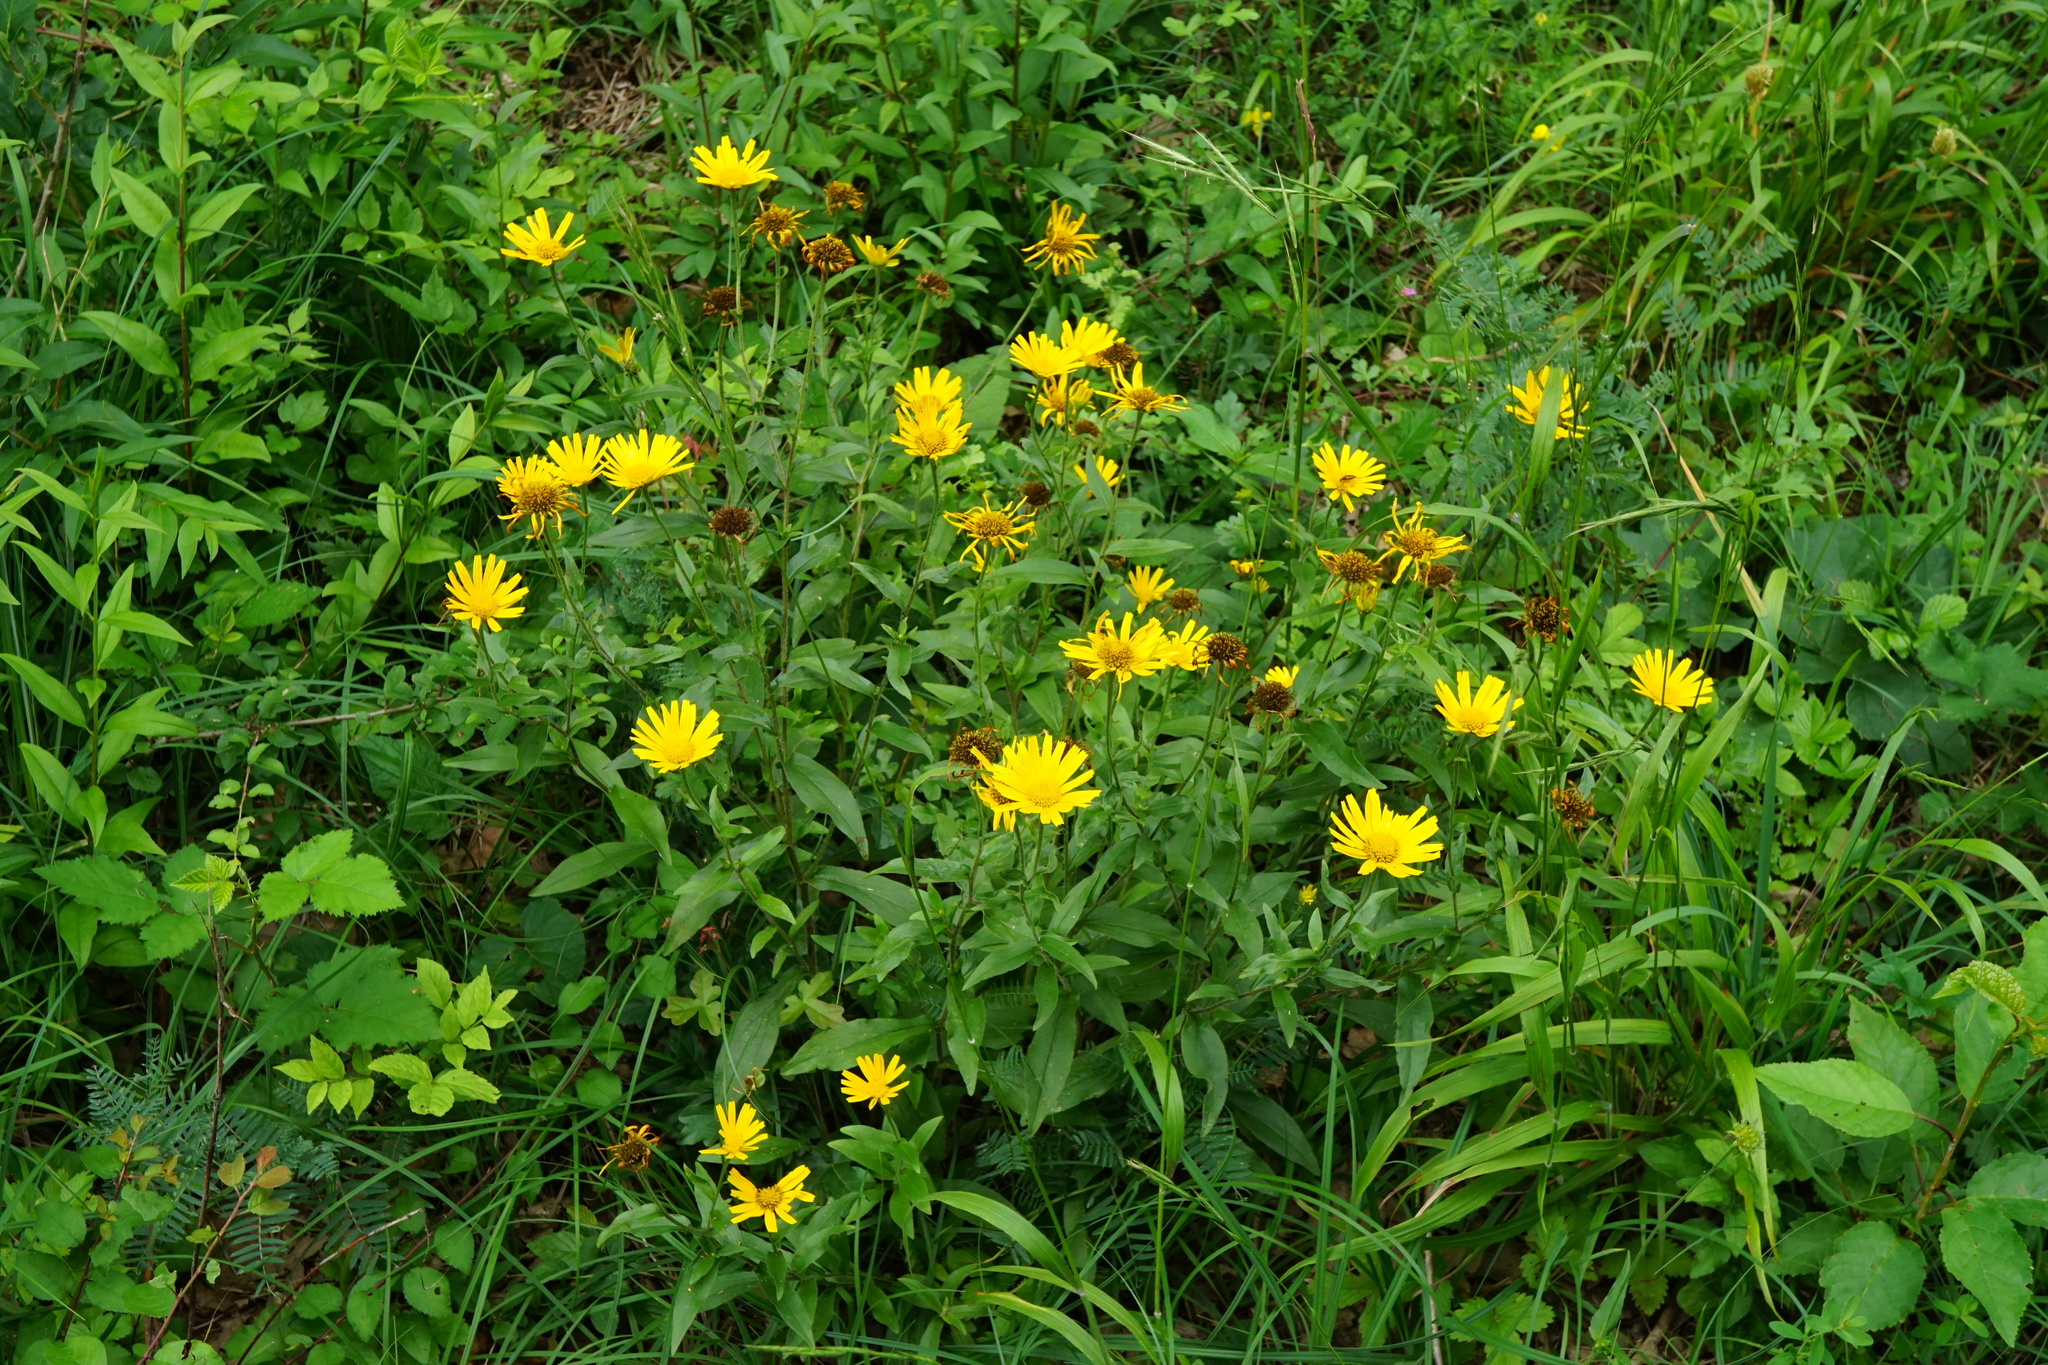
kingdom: Plantae
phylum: Tracheophyta
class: Magnoliopsida
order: Asterales
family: Asteraceae
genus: Buphthalmum
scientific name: Buphthalmum salicifolium
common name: Willow-leaved yellow-oxeye
